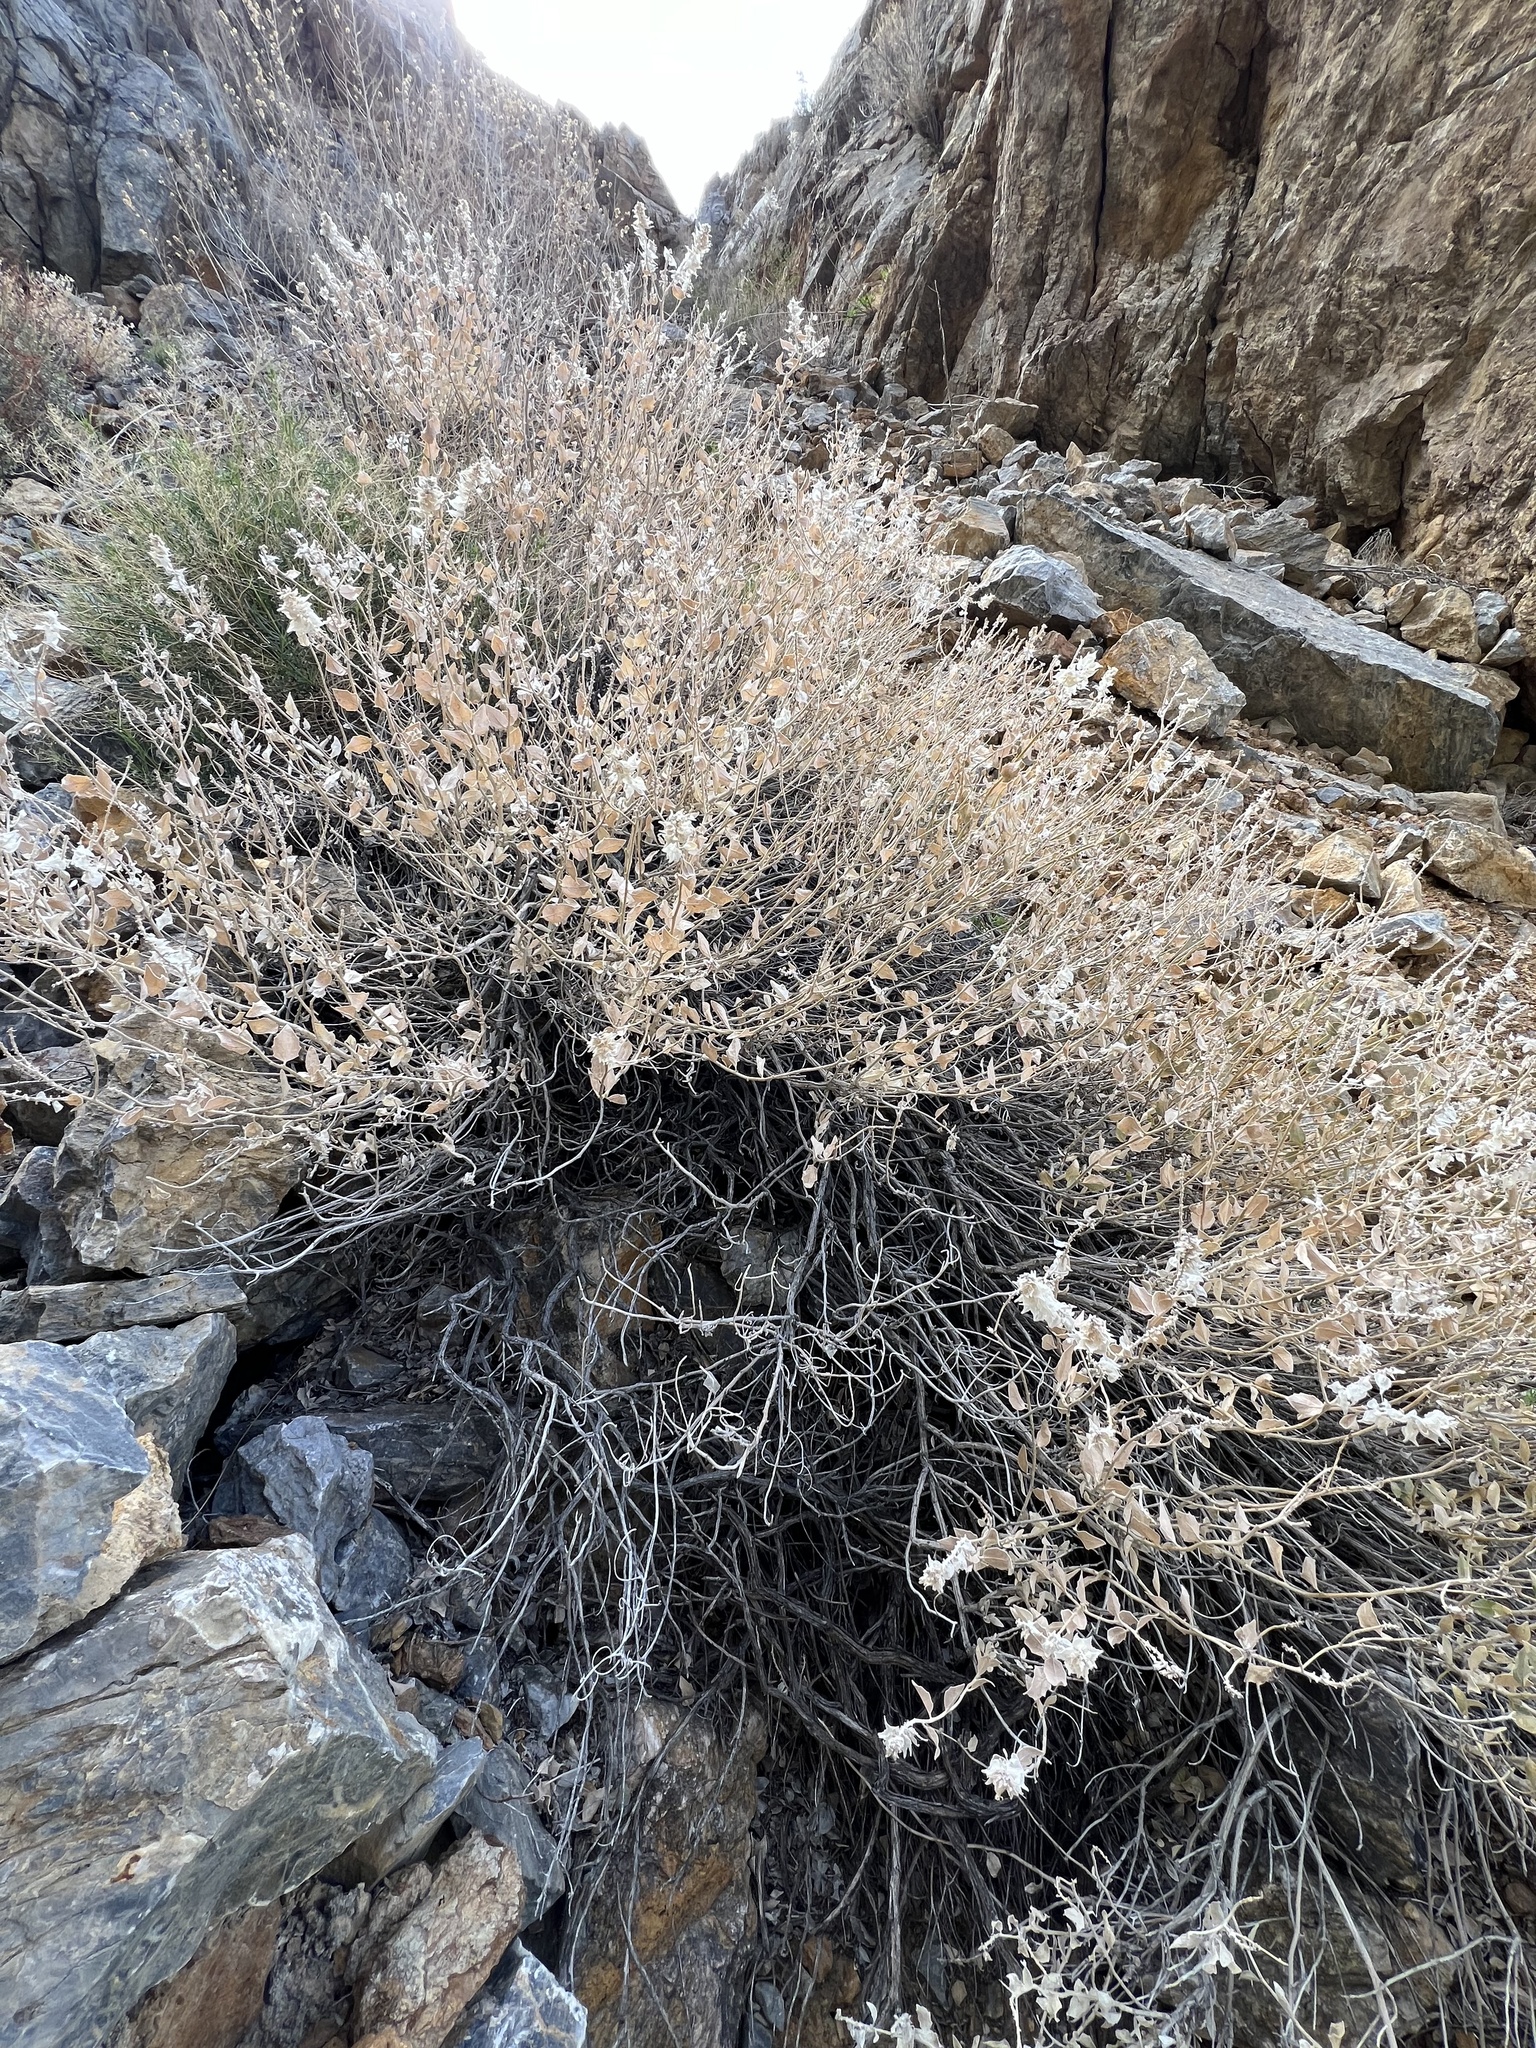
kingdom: Plantae
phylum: Tracheophyta
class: Magnoliopsida
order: Cornales
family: Loasaceae
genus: Petalonyx
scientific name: Petalonyx nitidus
